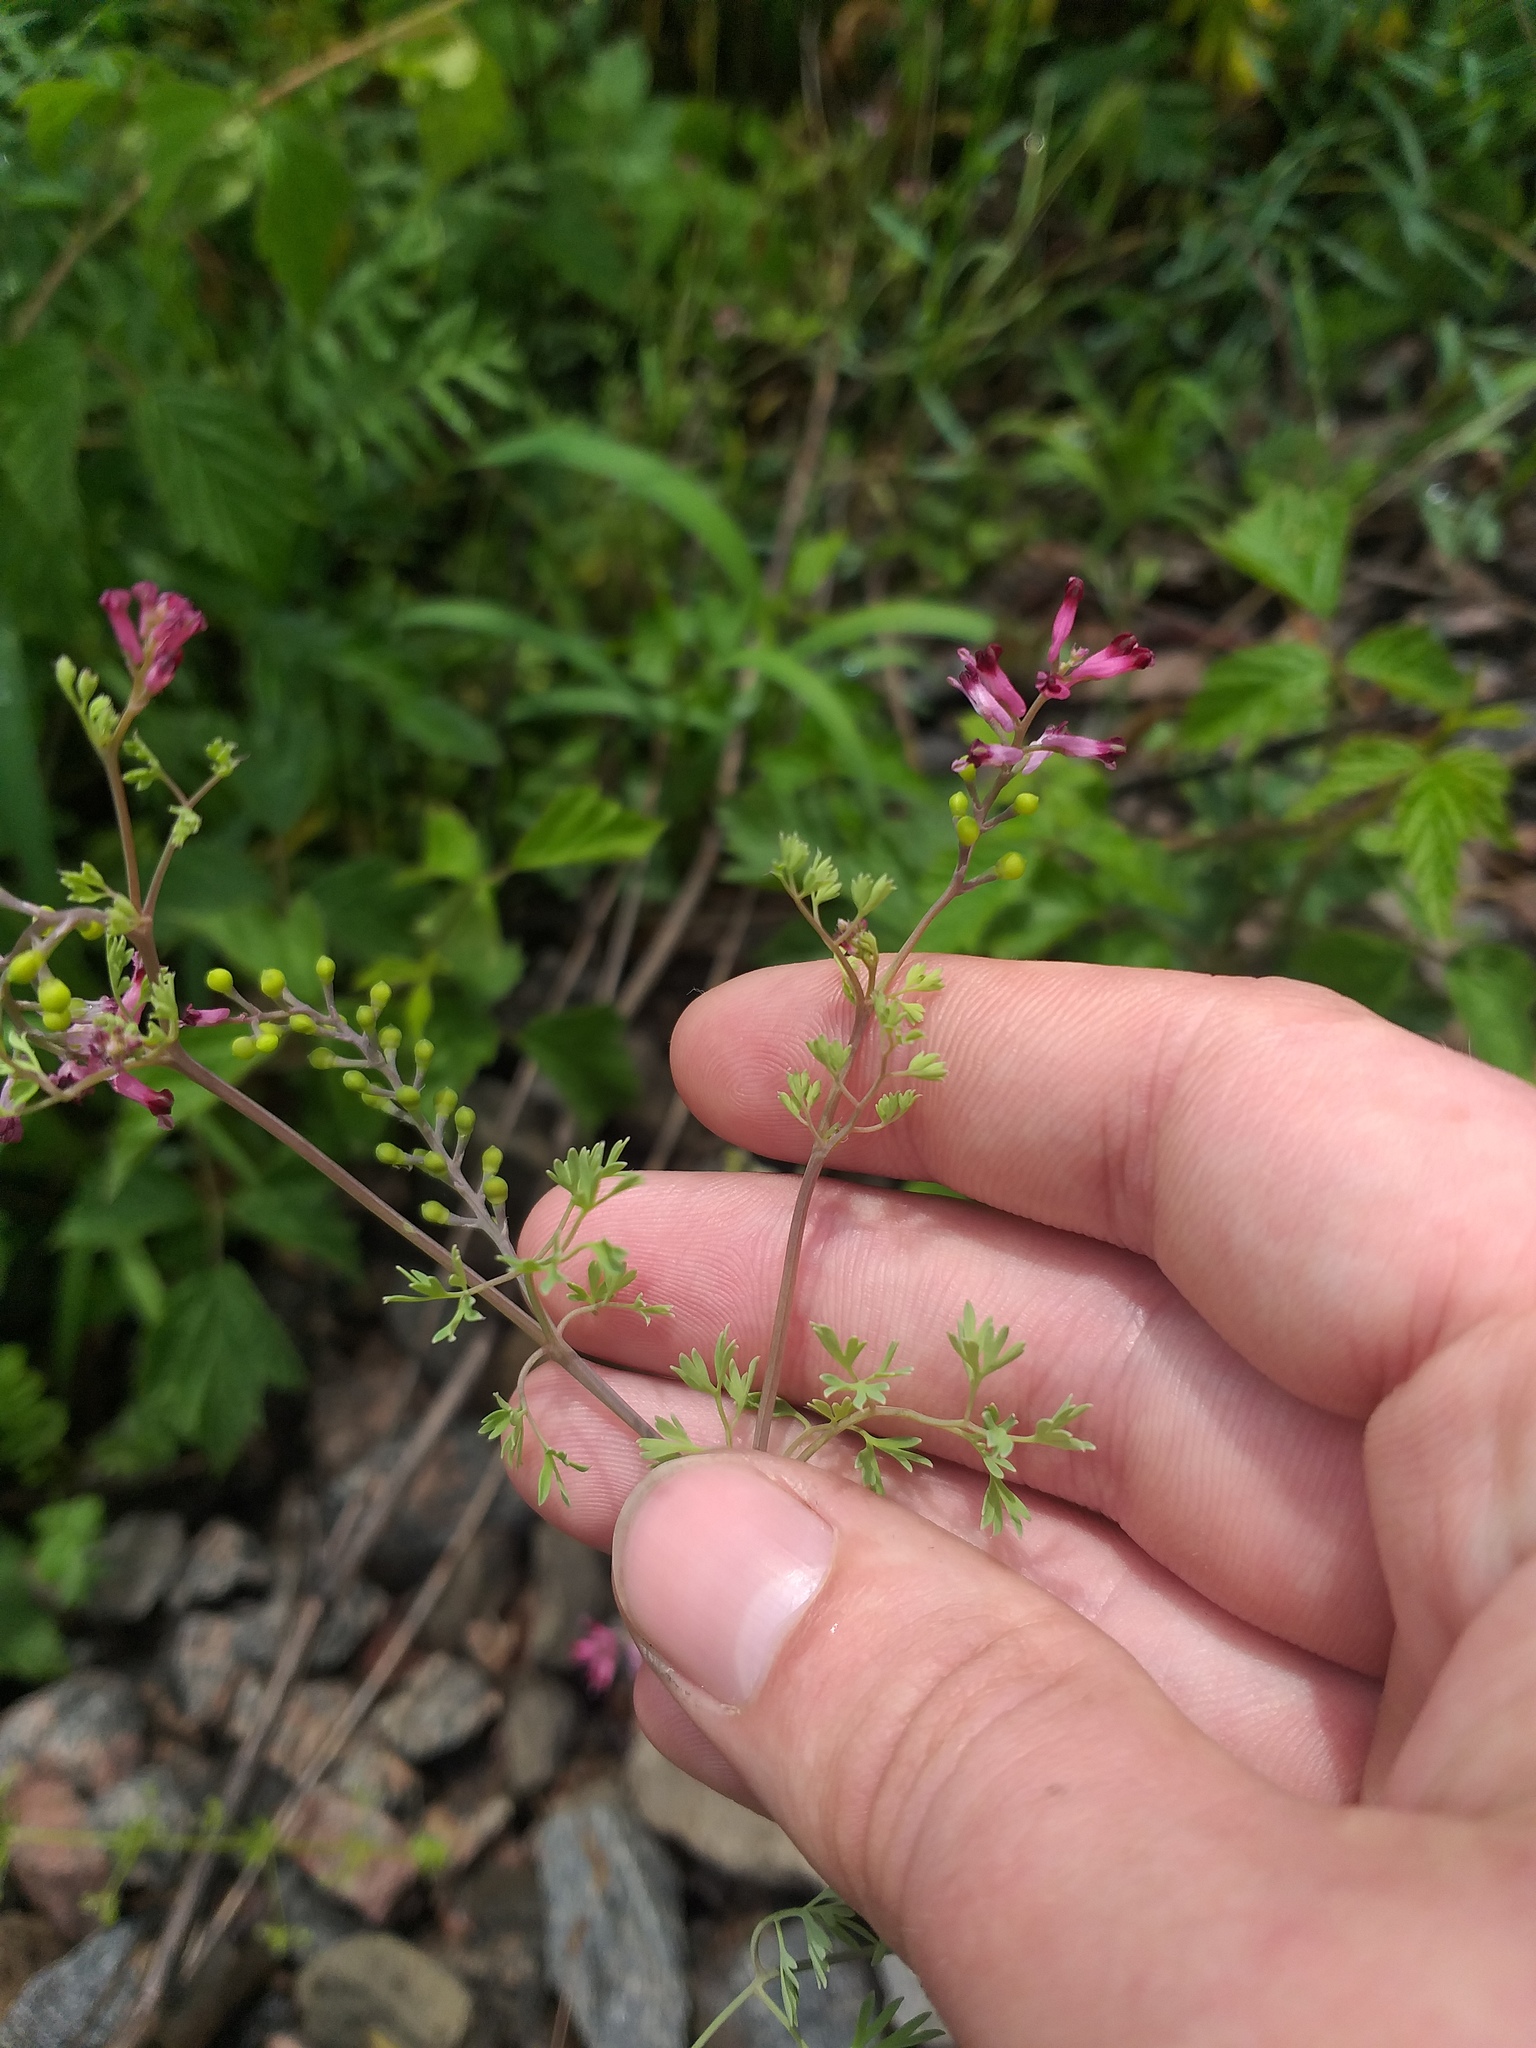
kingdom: Plantae
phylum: Tracheophyta
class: Magnoliopsida
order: Ranunculales
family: Papaveraceae
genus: Fumaria
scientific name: Fumaria schleicheri
